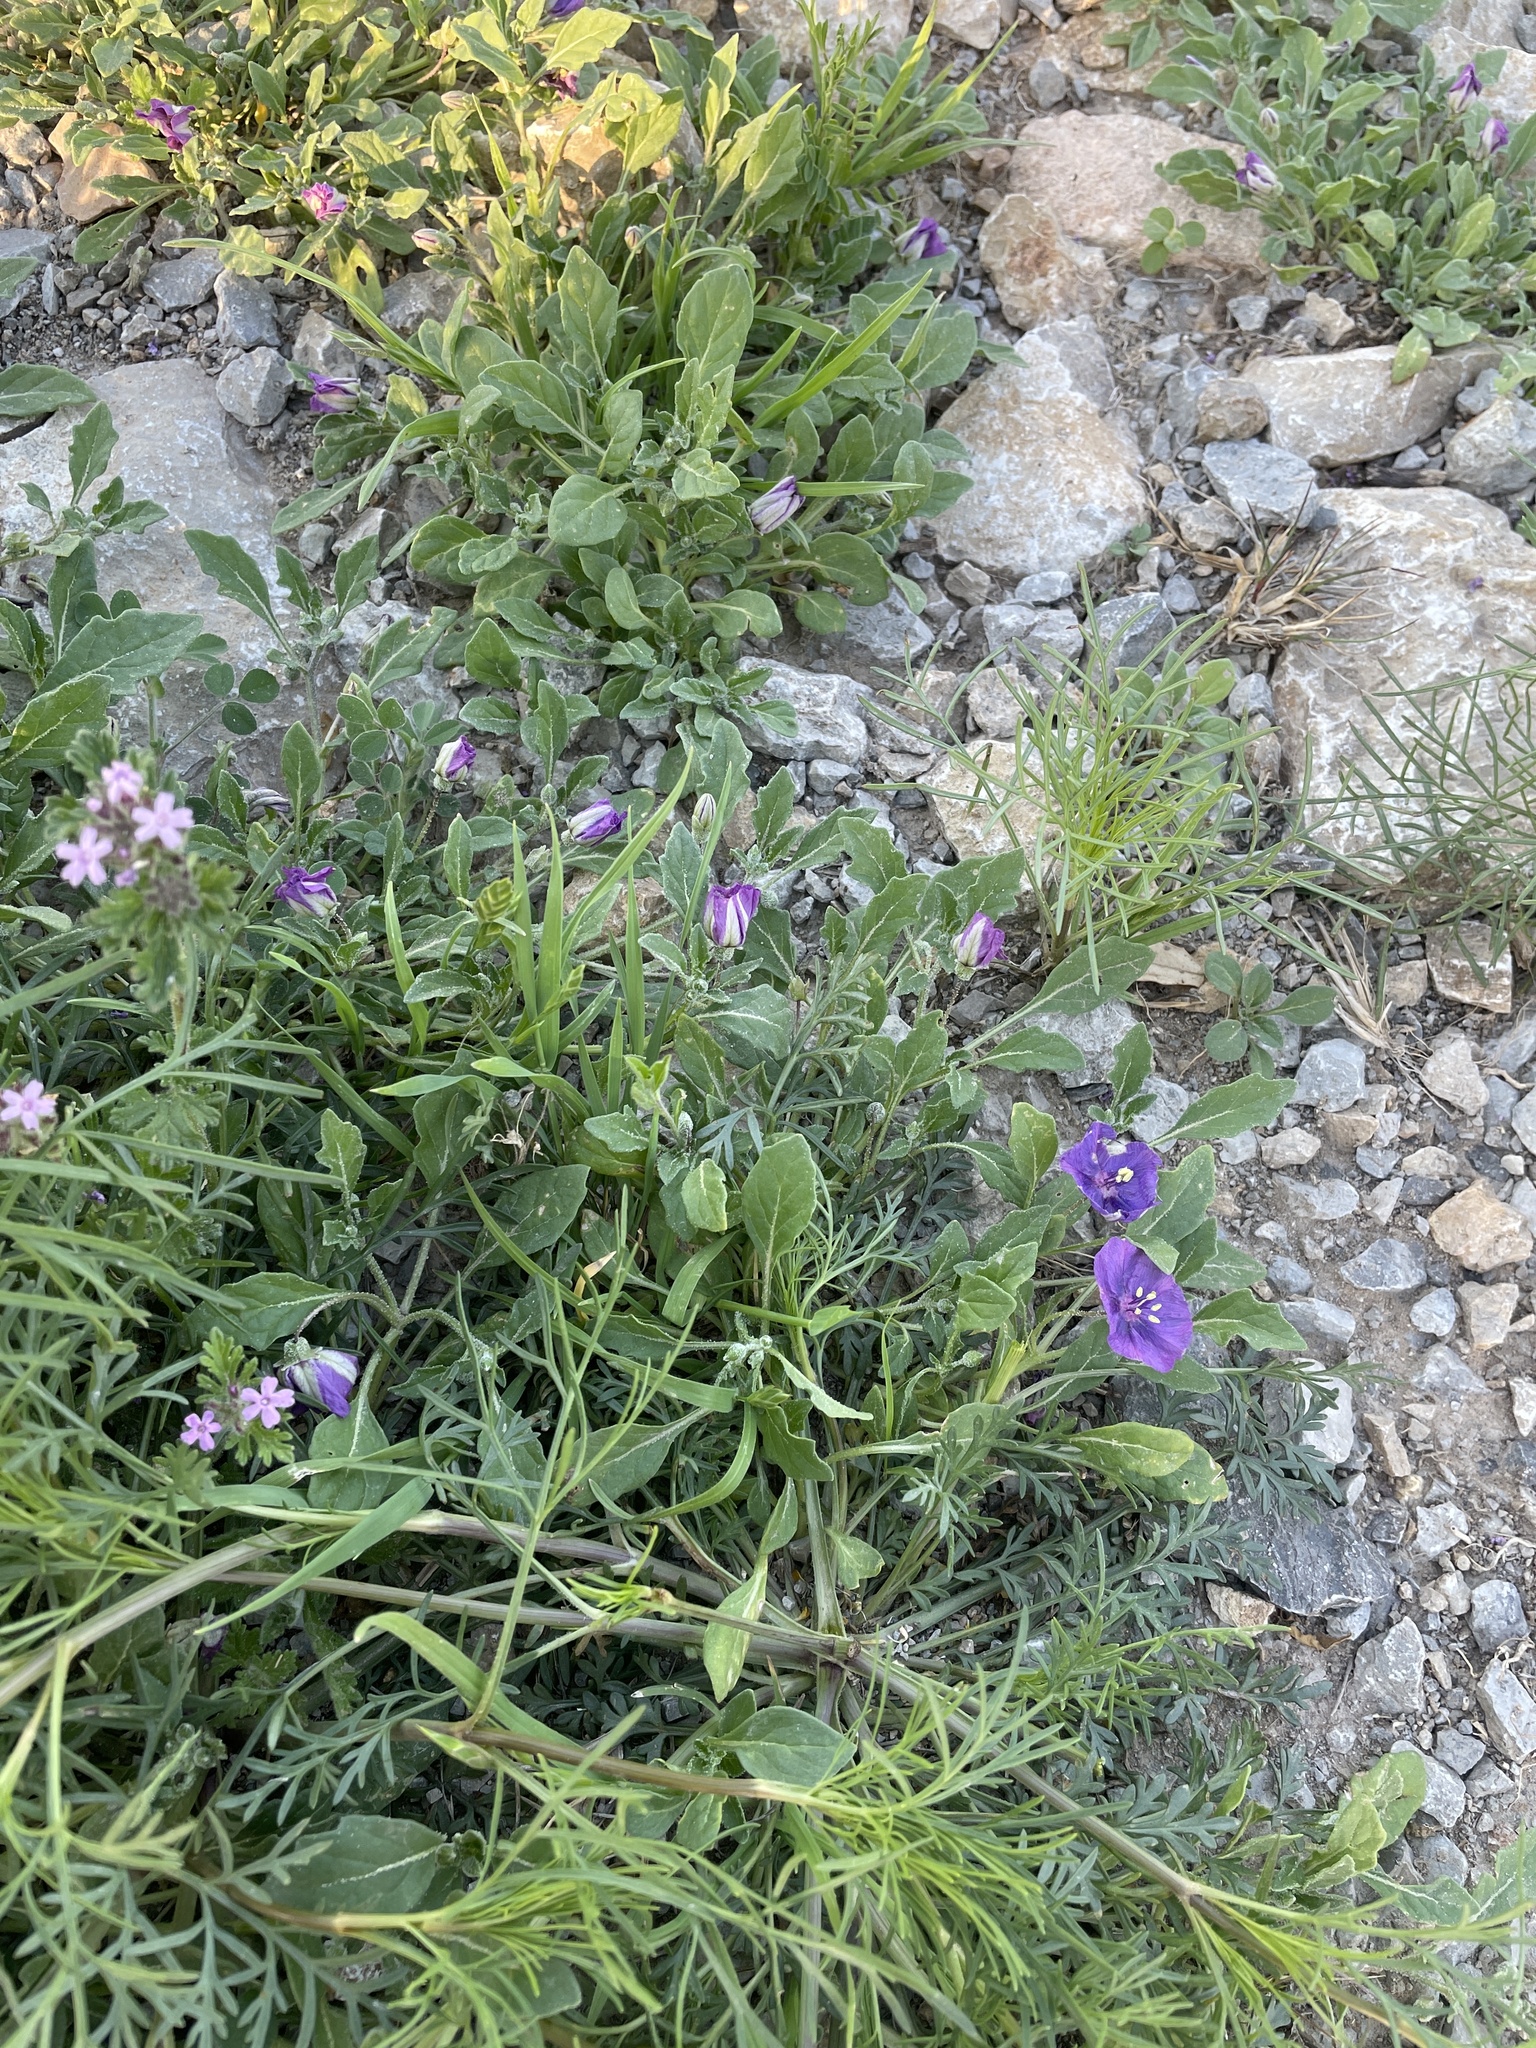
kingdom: Plantae
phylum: Tracheophyta
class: Magnoliopsida
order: Solanales
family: Solanaceae
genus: Quincula
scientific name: Quincula lobata
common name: Purple-ground-cherry
